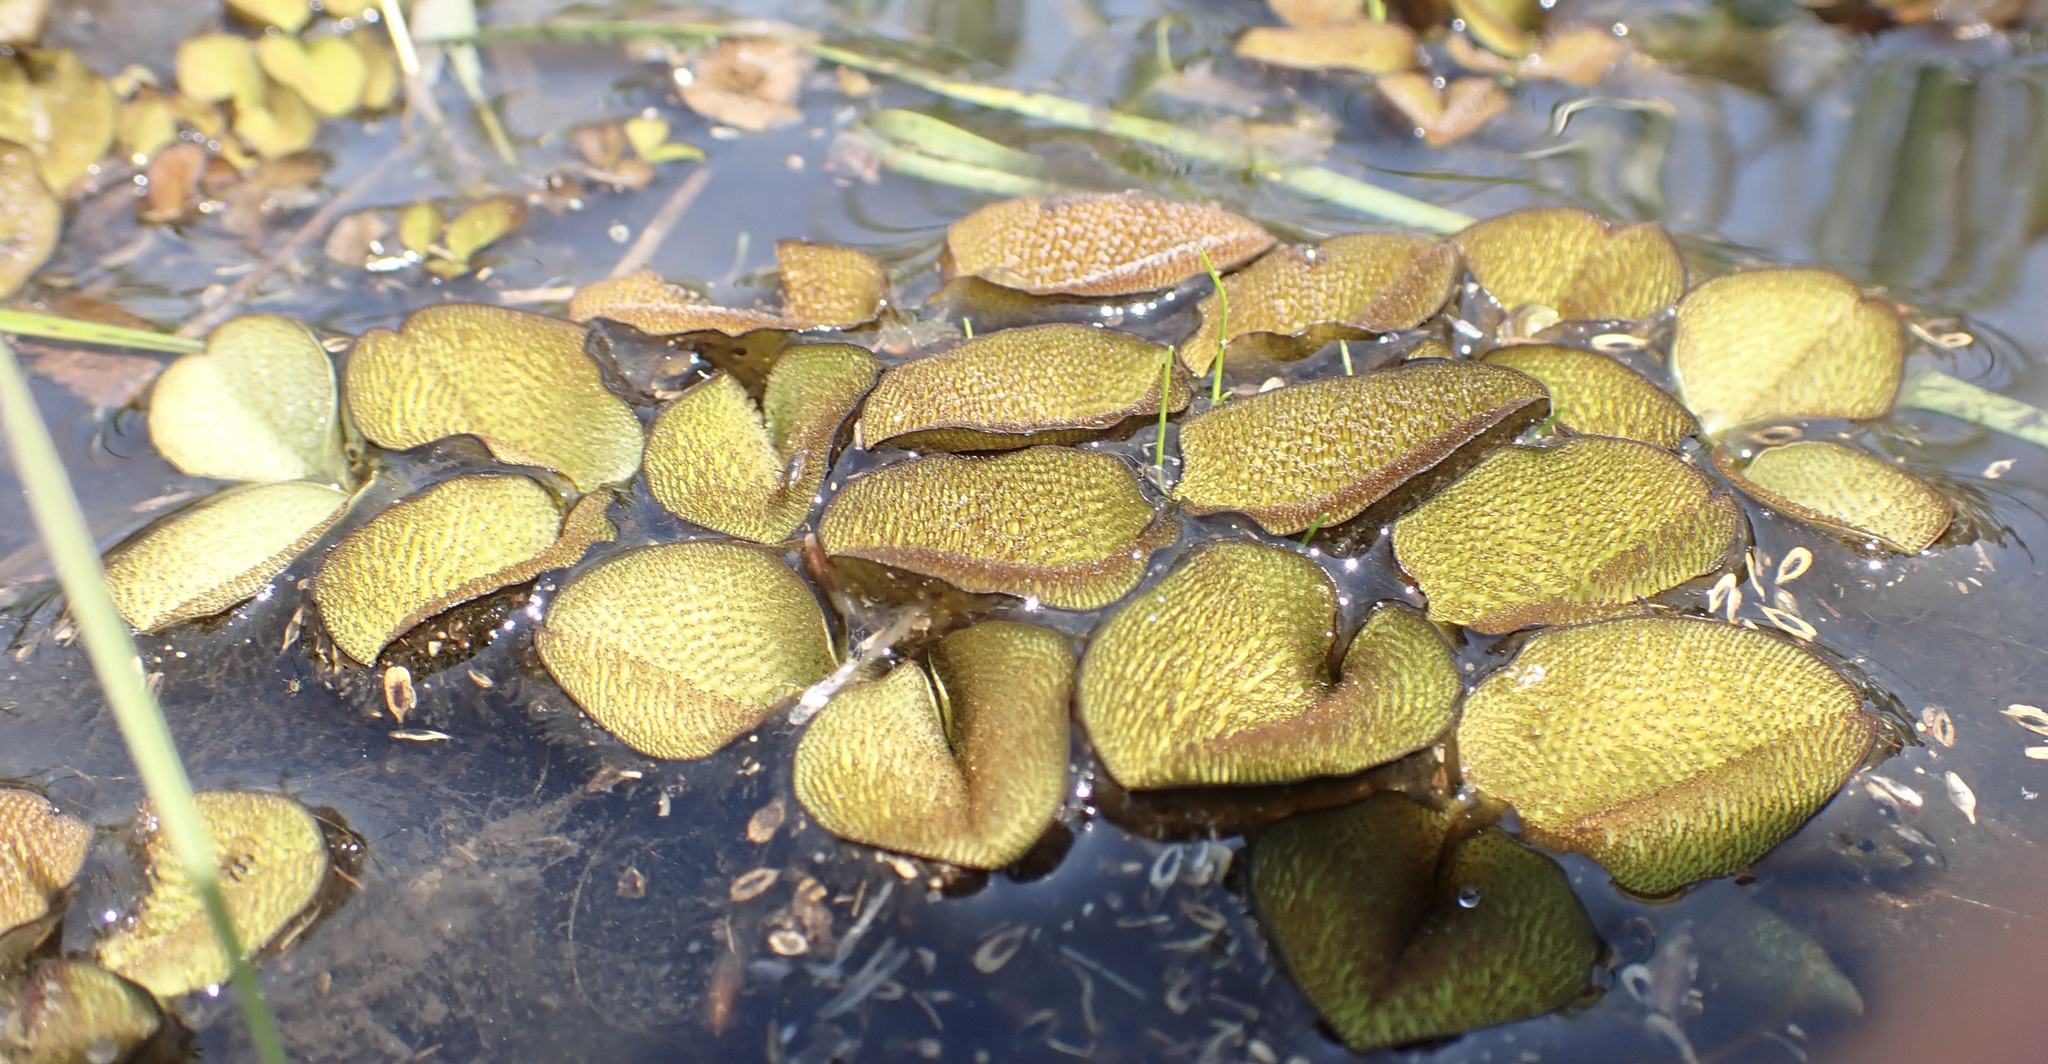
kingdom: Plantae
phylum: Tracheophyta
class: Polypodiopsida
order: Salviniales
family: Salviniaceae
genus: Salvinia
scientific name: Salvinia molesta
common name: Kariba weed
